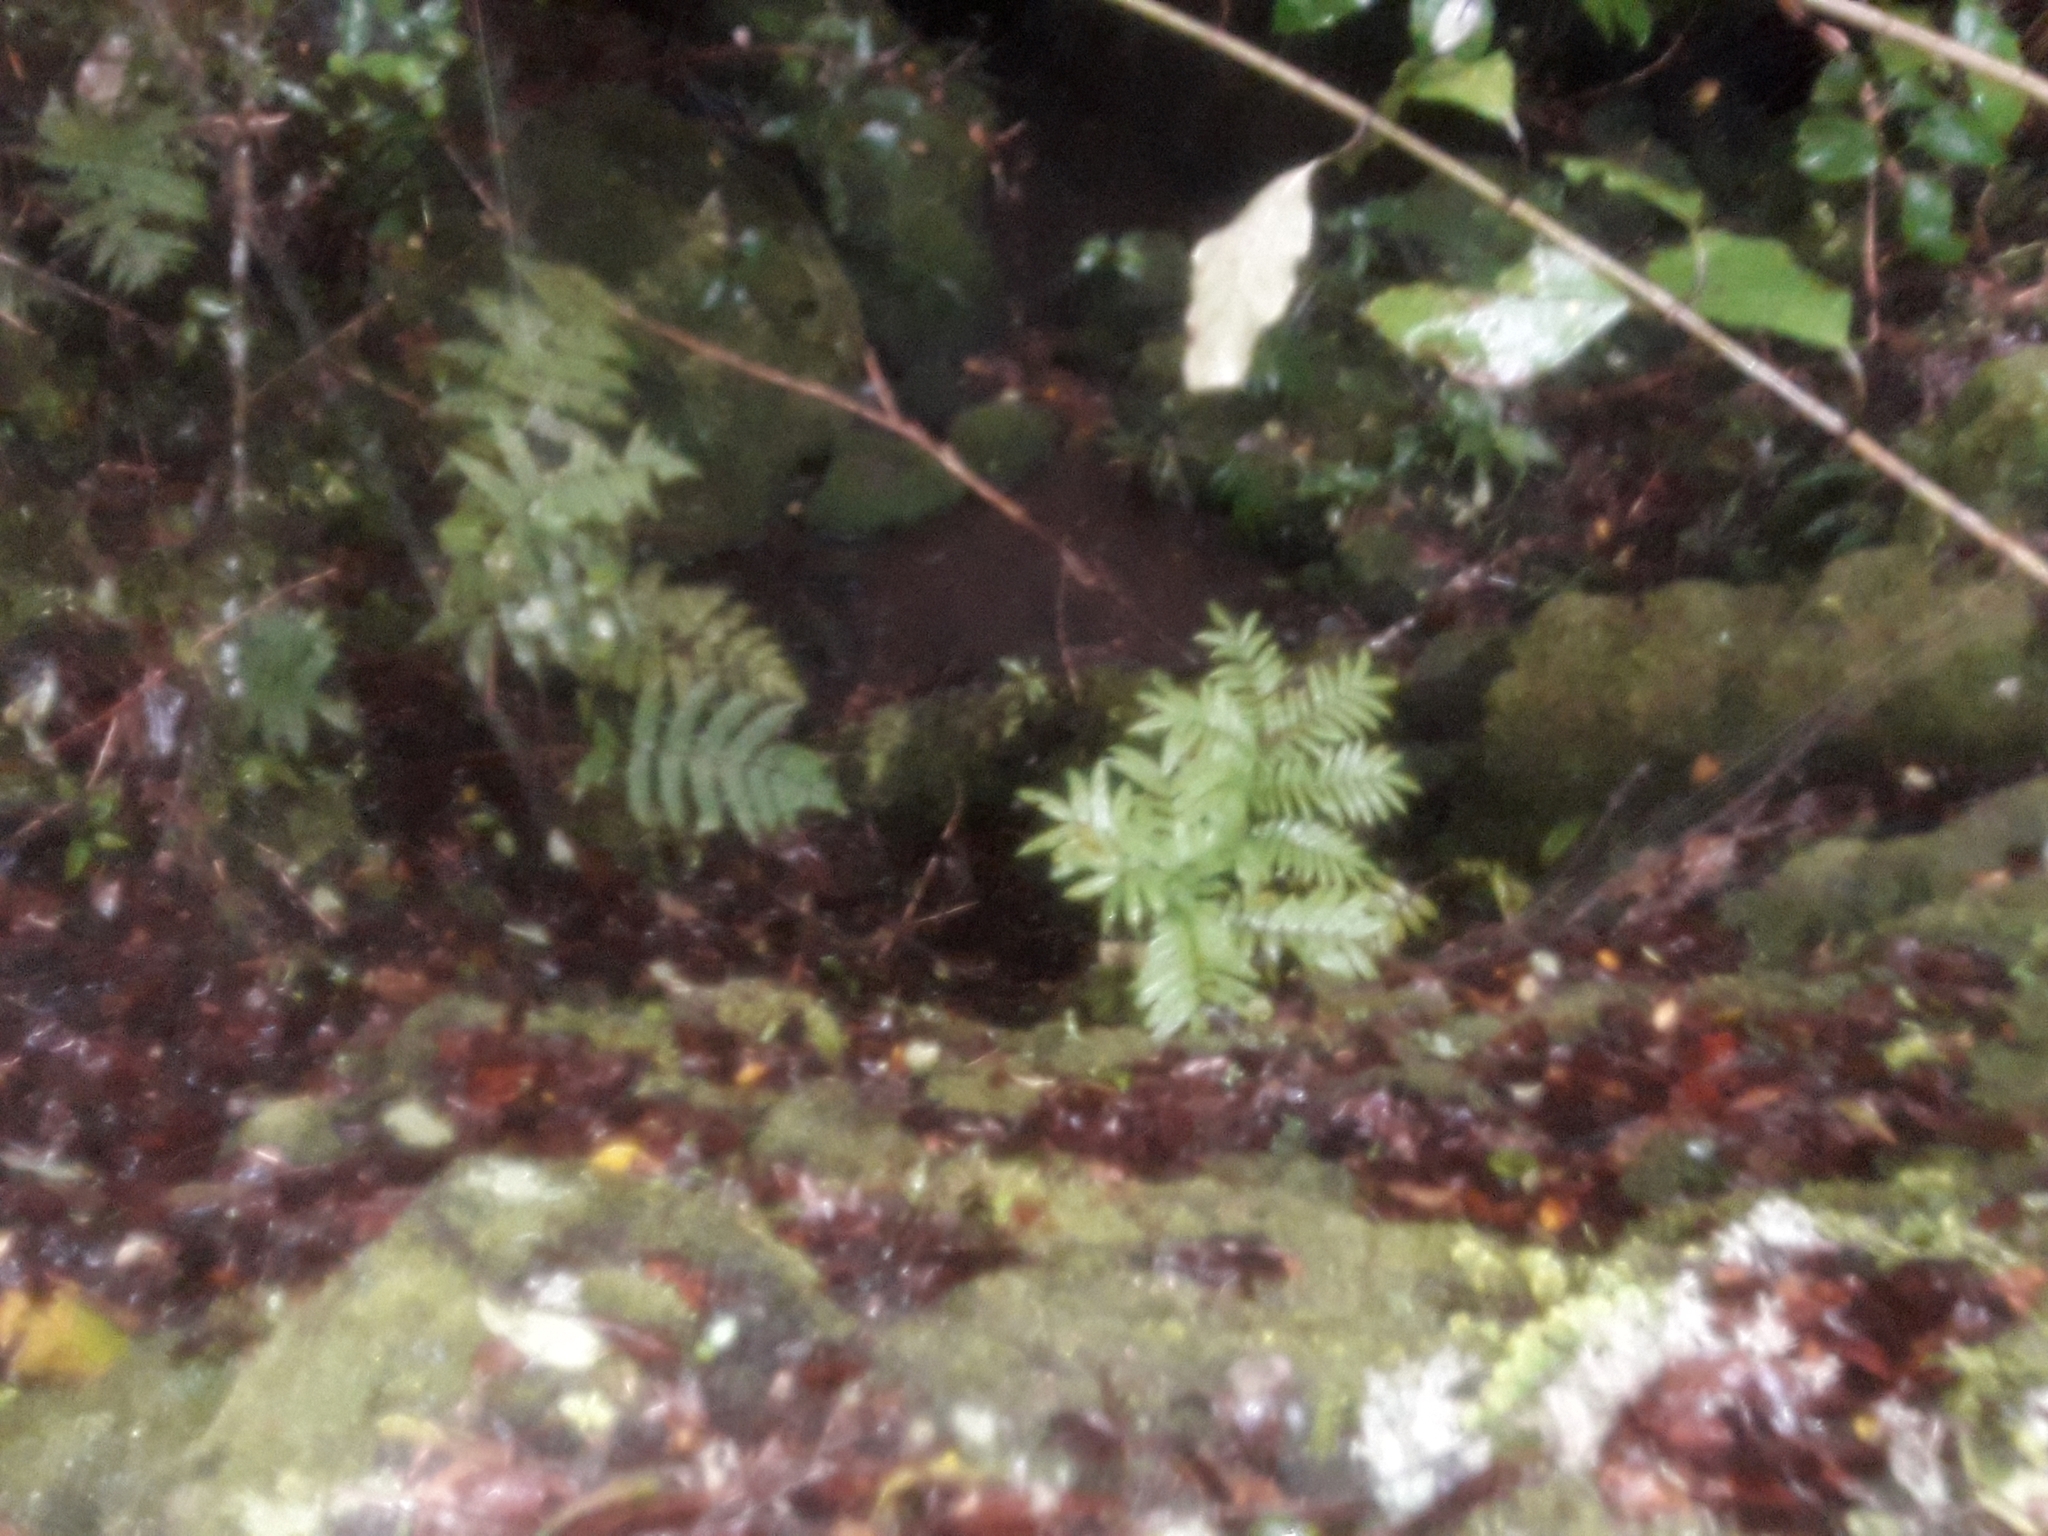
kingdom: Plantae
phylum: Tracheophyta
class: Polypodiopsida
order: Marattiales
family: Marattiaceae
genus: Ptisana
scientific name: Ptisana salicina
